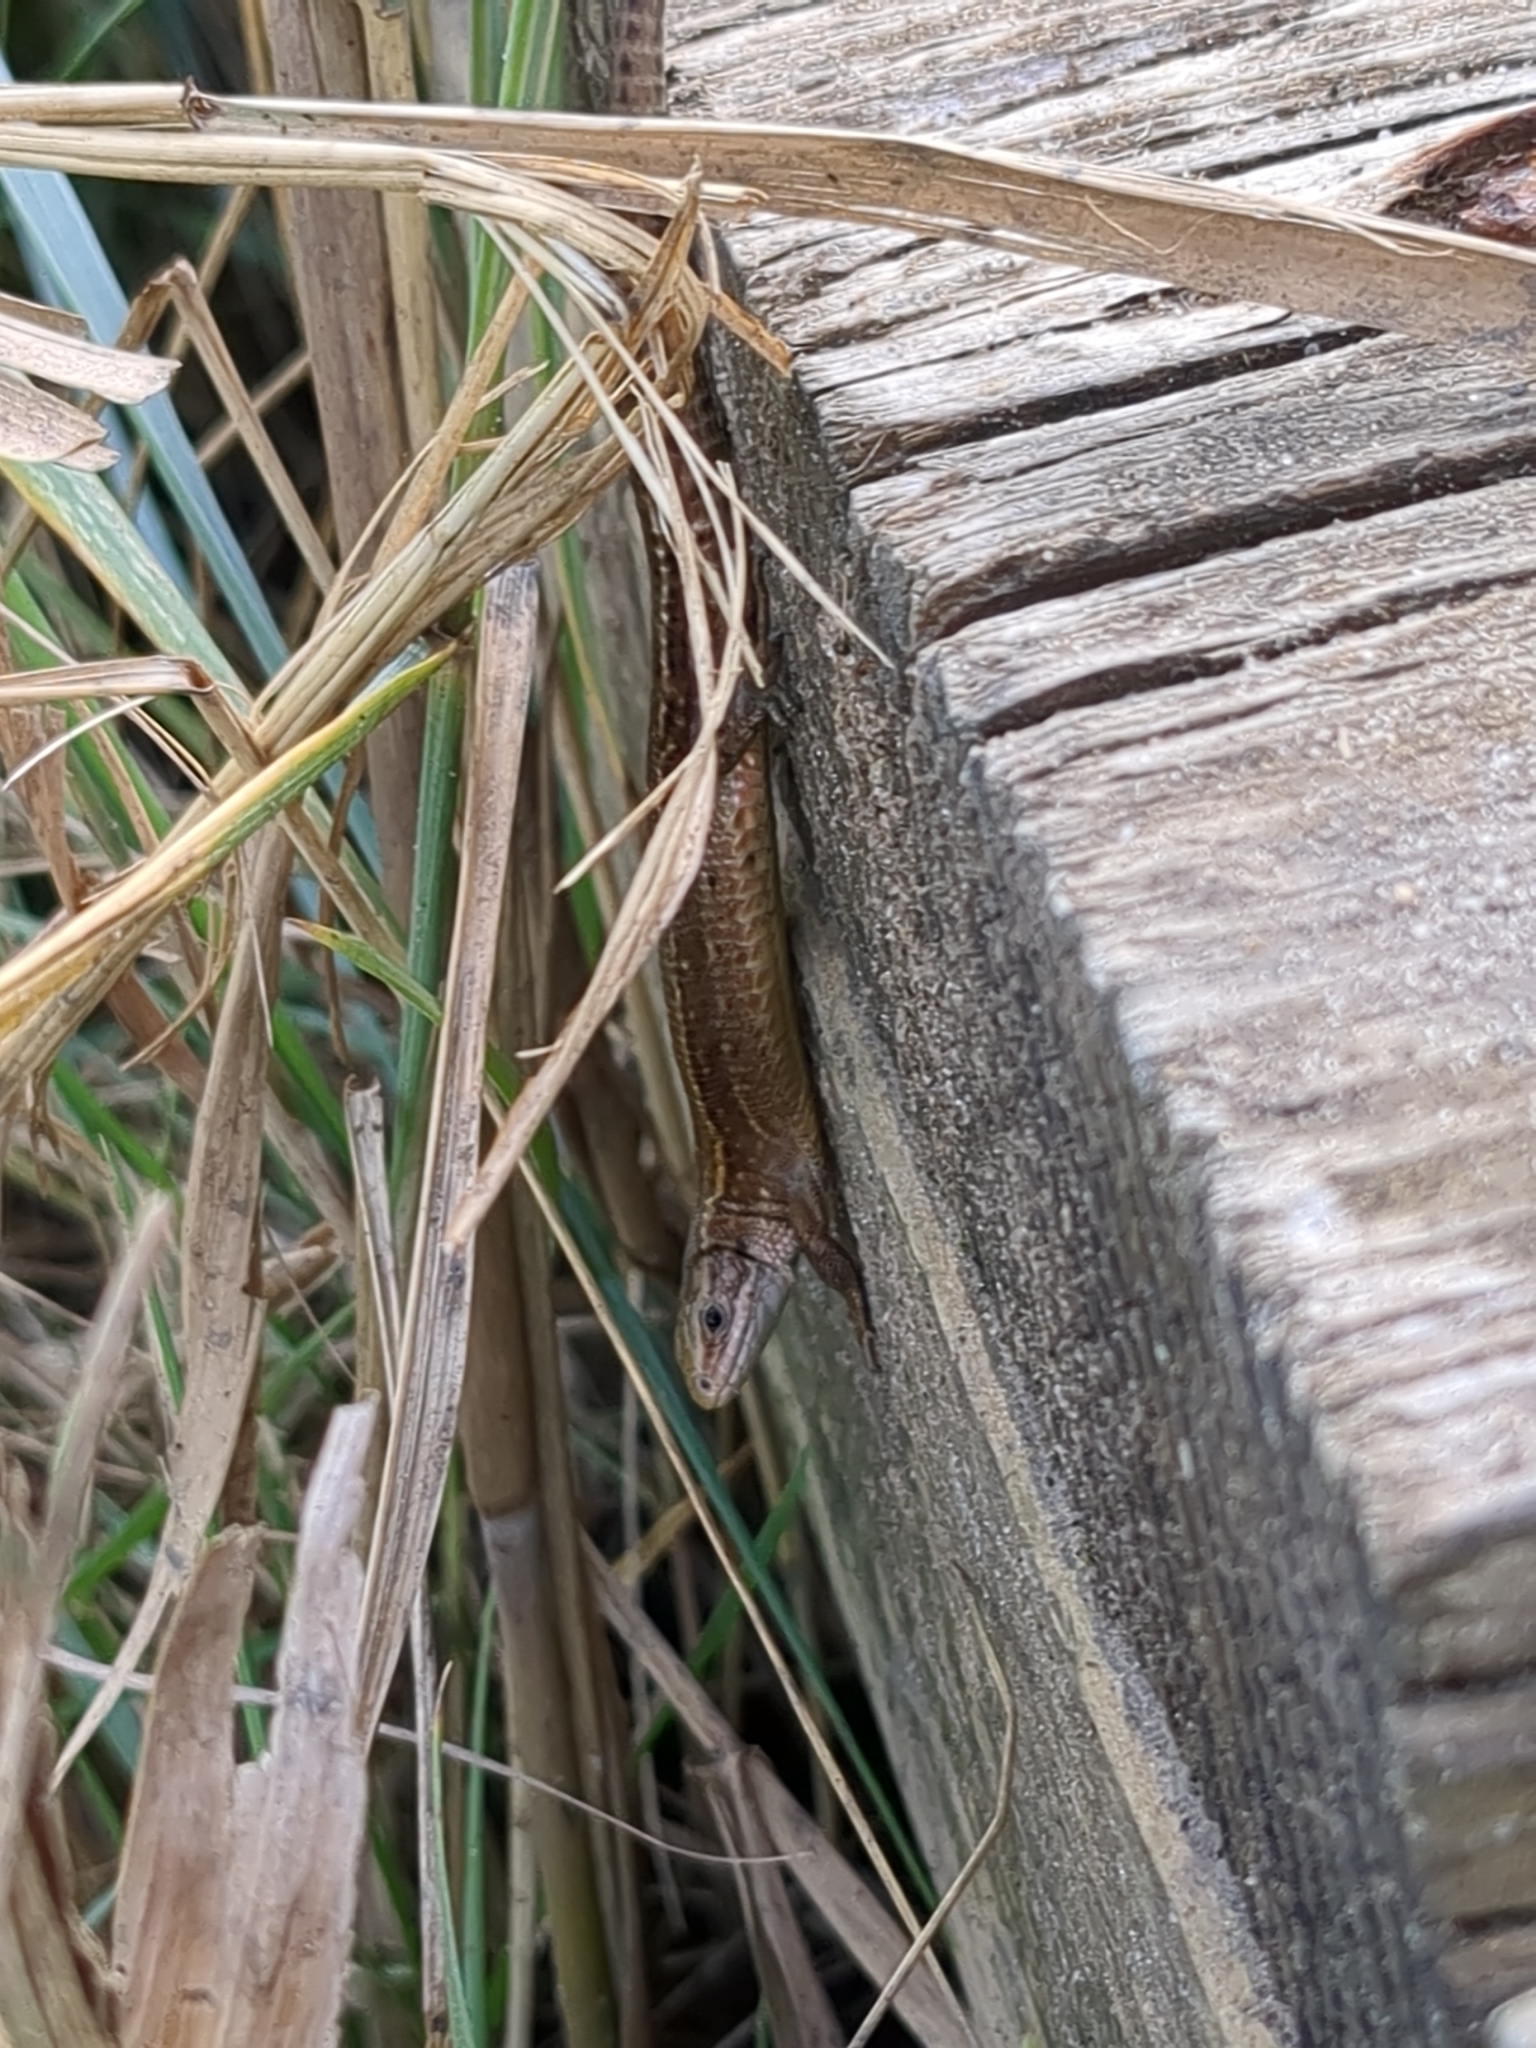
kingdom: Animalia
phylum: Chordata
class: Squamata
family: Lacertidae
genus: Zootoca
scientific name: Zootoca vivipara
